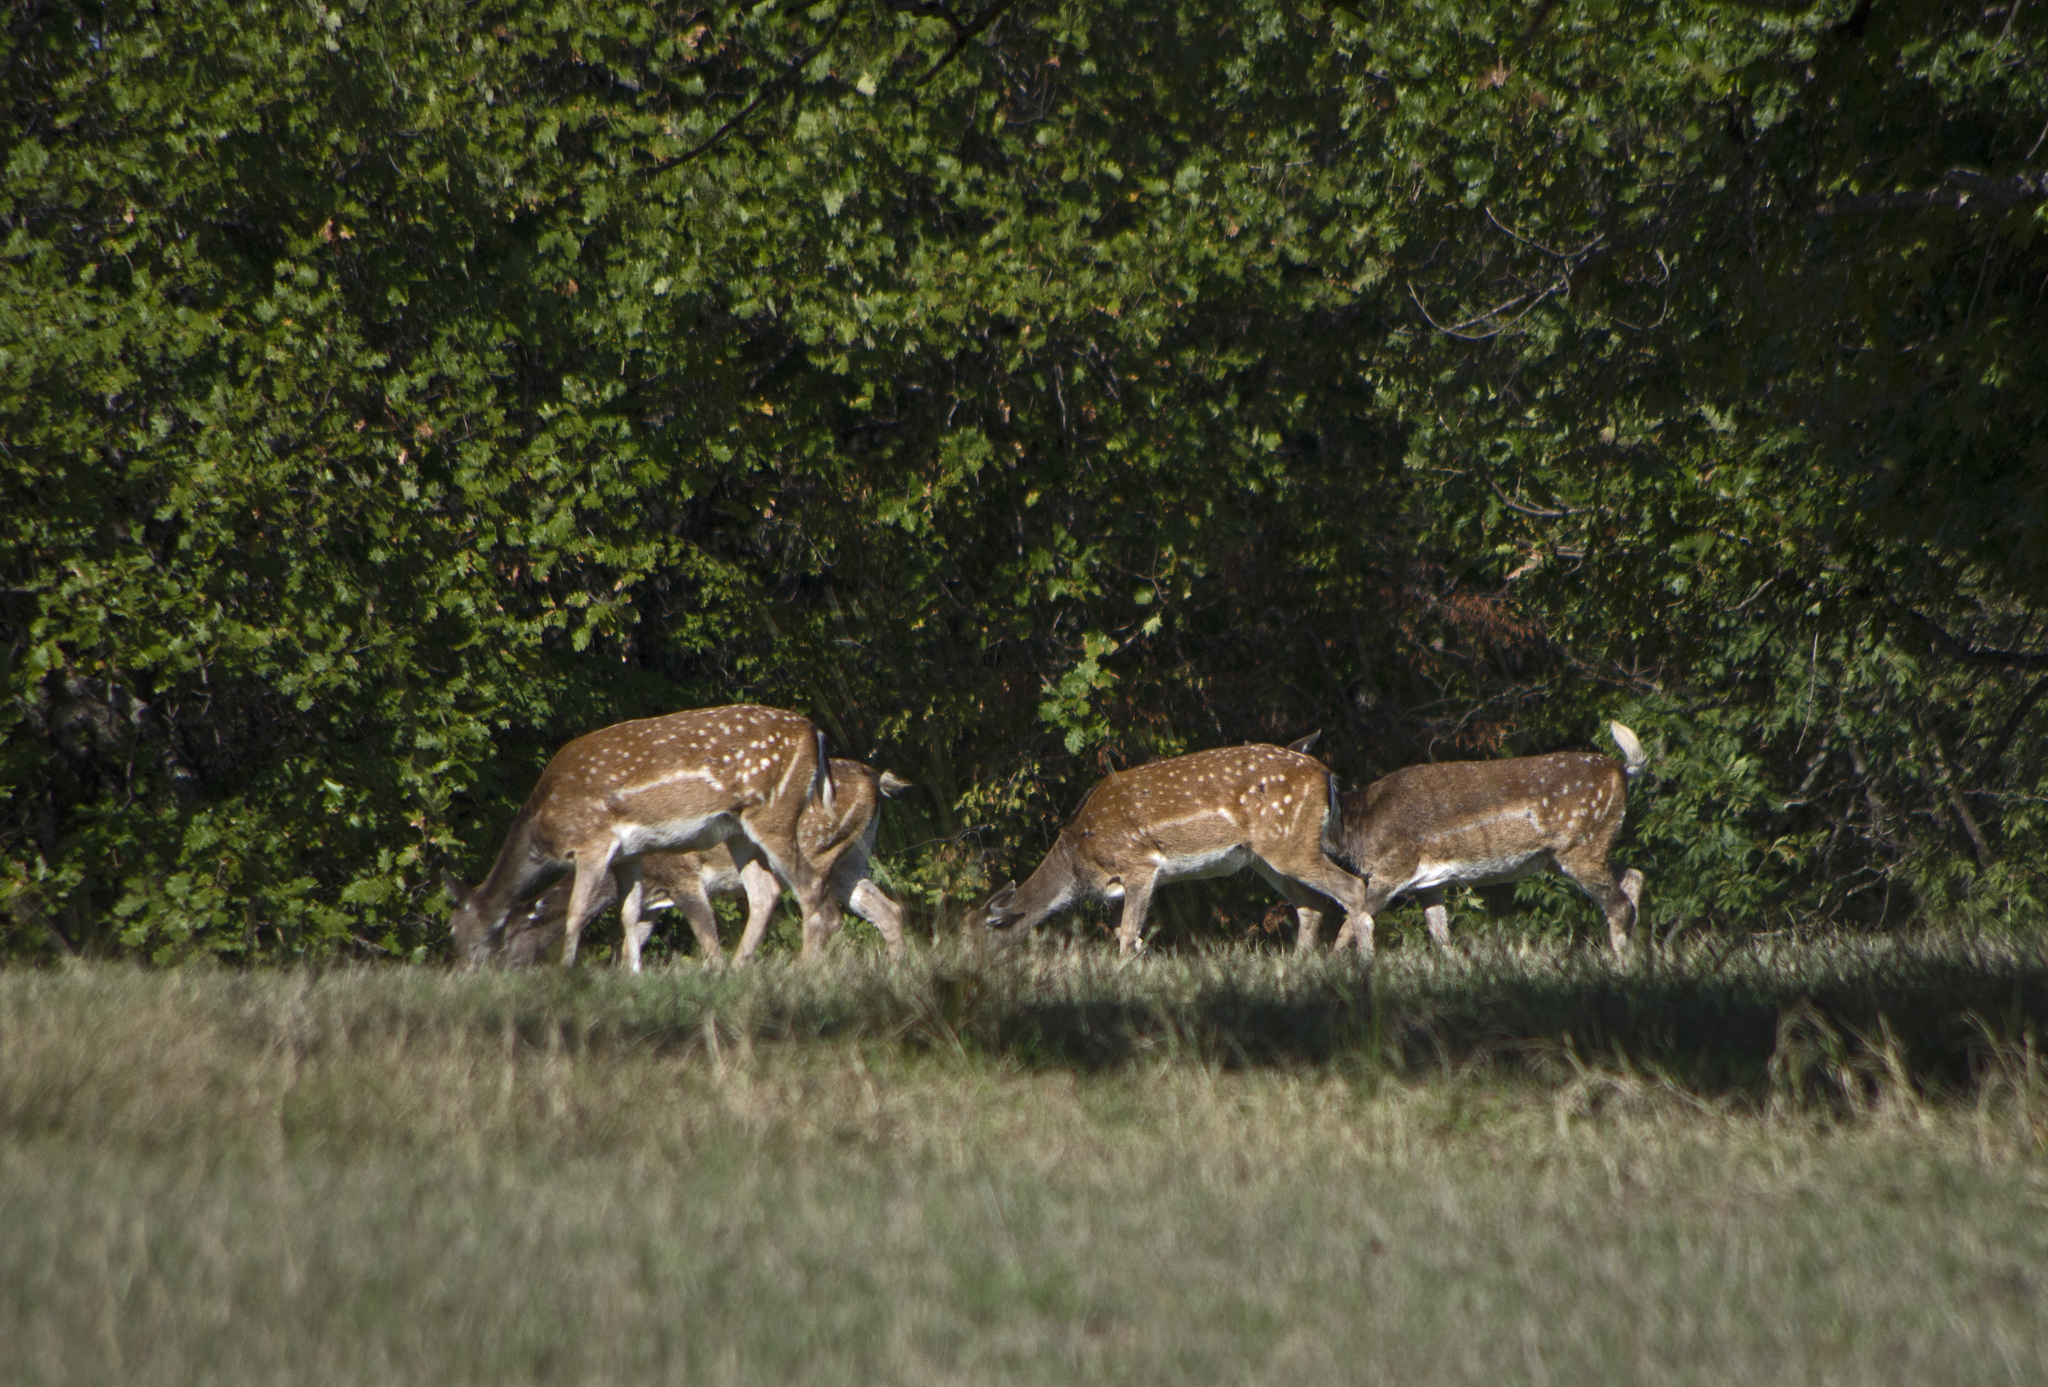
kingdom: Animalia
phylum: Chordata
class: Mammalia
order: Artiodactyla
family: Cervidae
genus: Dama
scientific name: Dama dama
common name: Fallow deer
